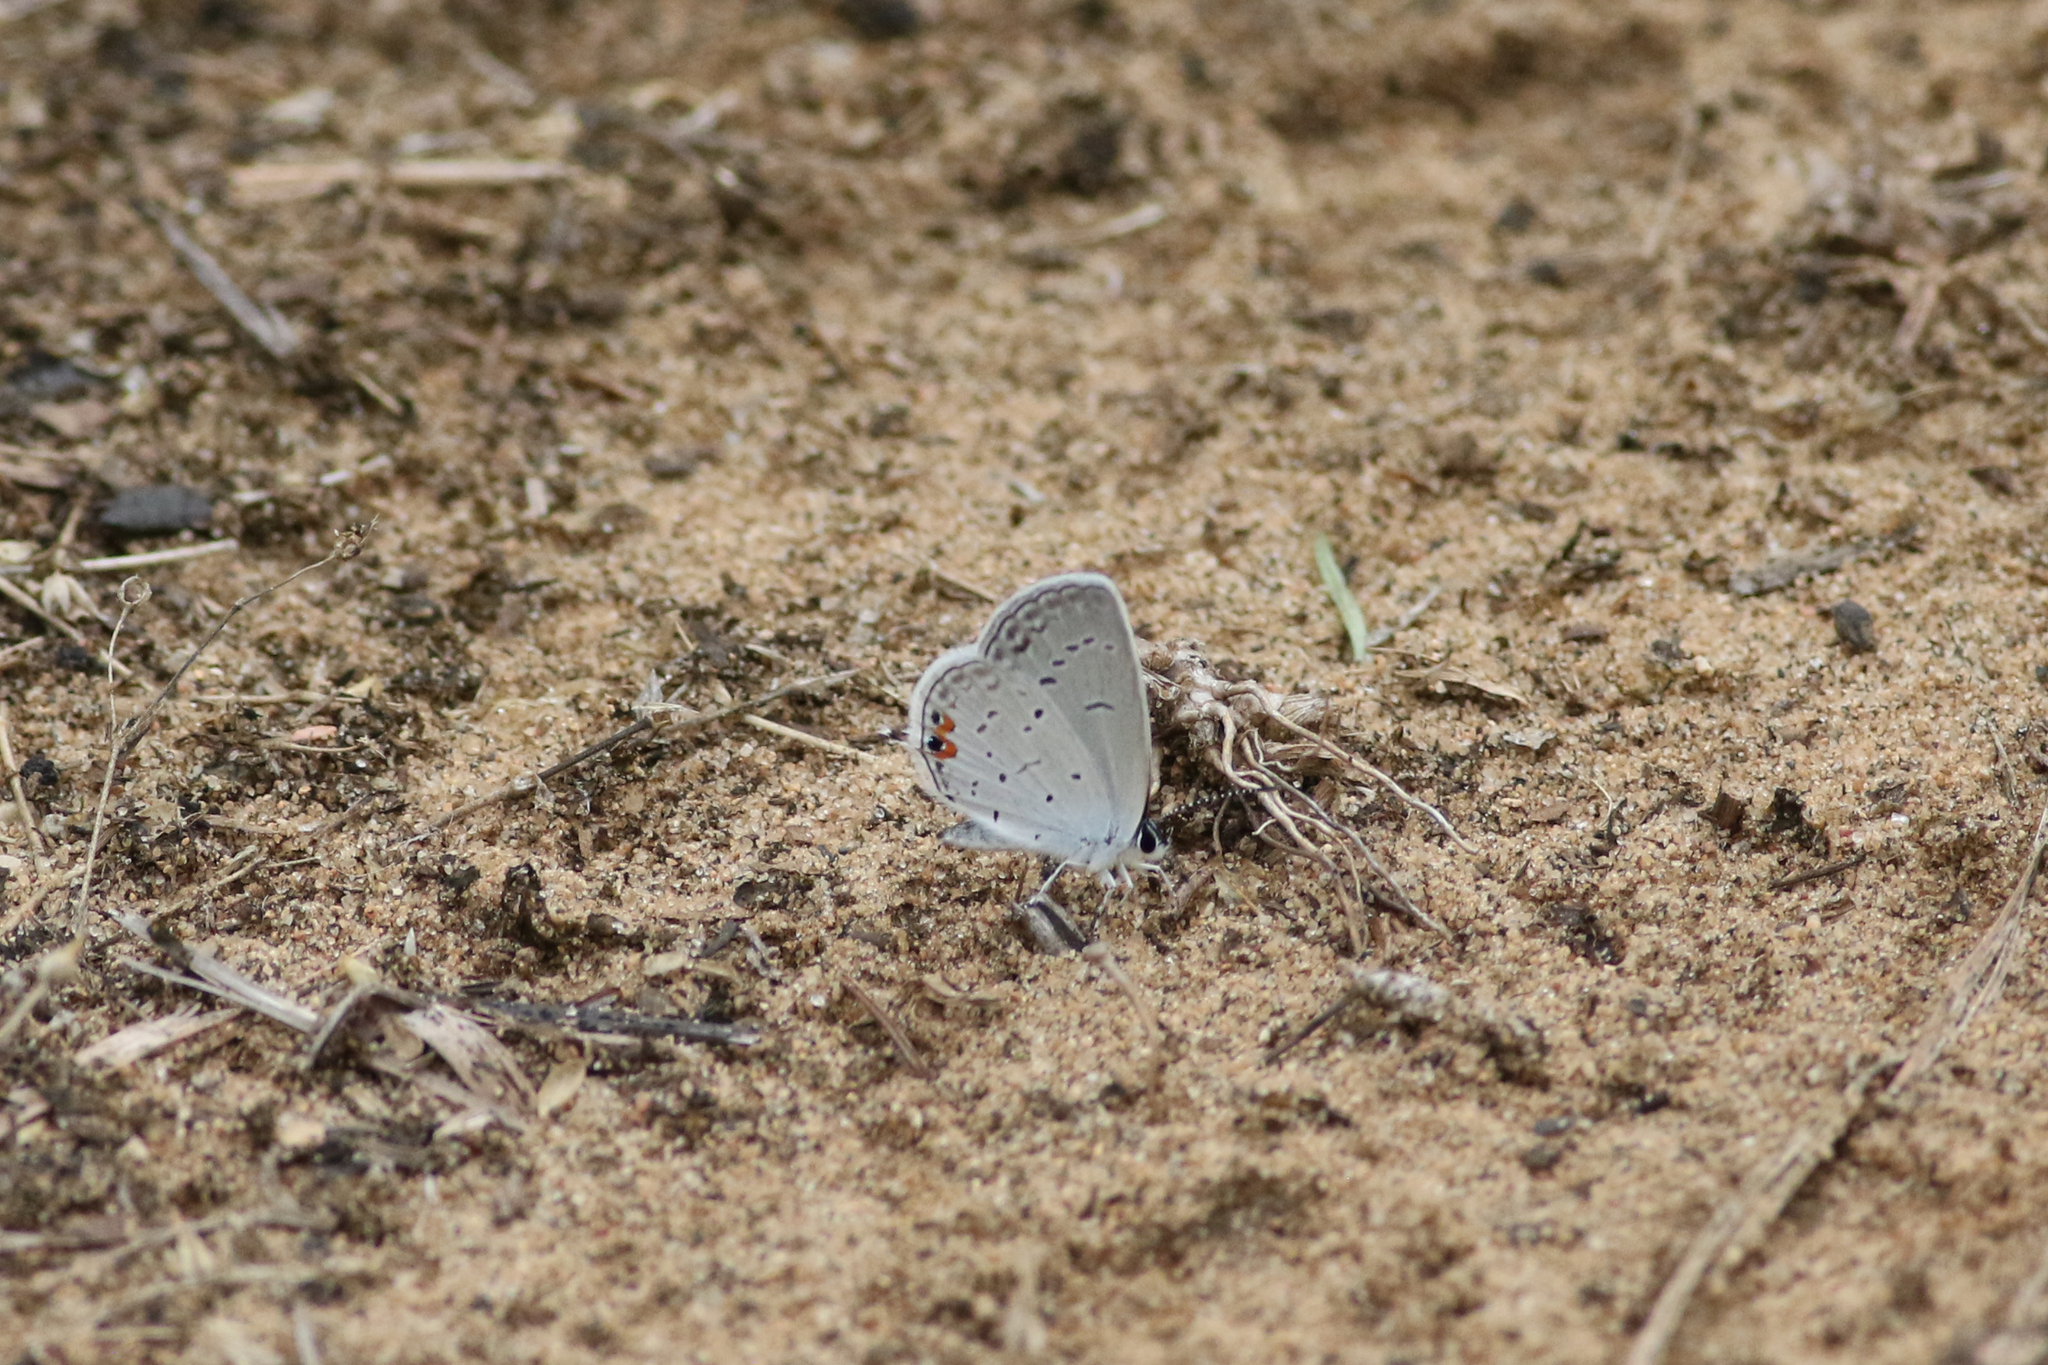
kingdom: Animalia
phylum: Arthropoda
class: Insecta
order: Lepidoptera
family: Lycaenidae
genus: Elkalyce
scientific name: Elkalyce comyntas
